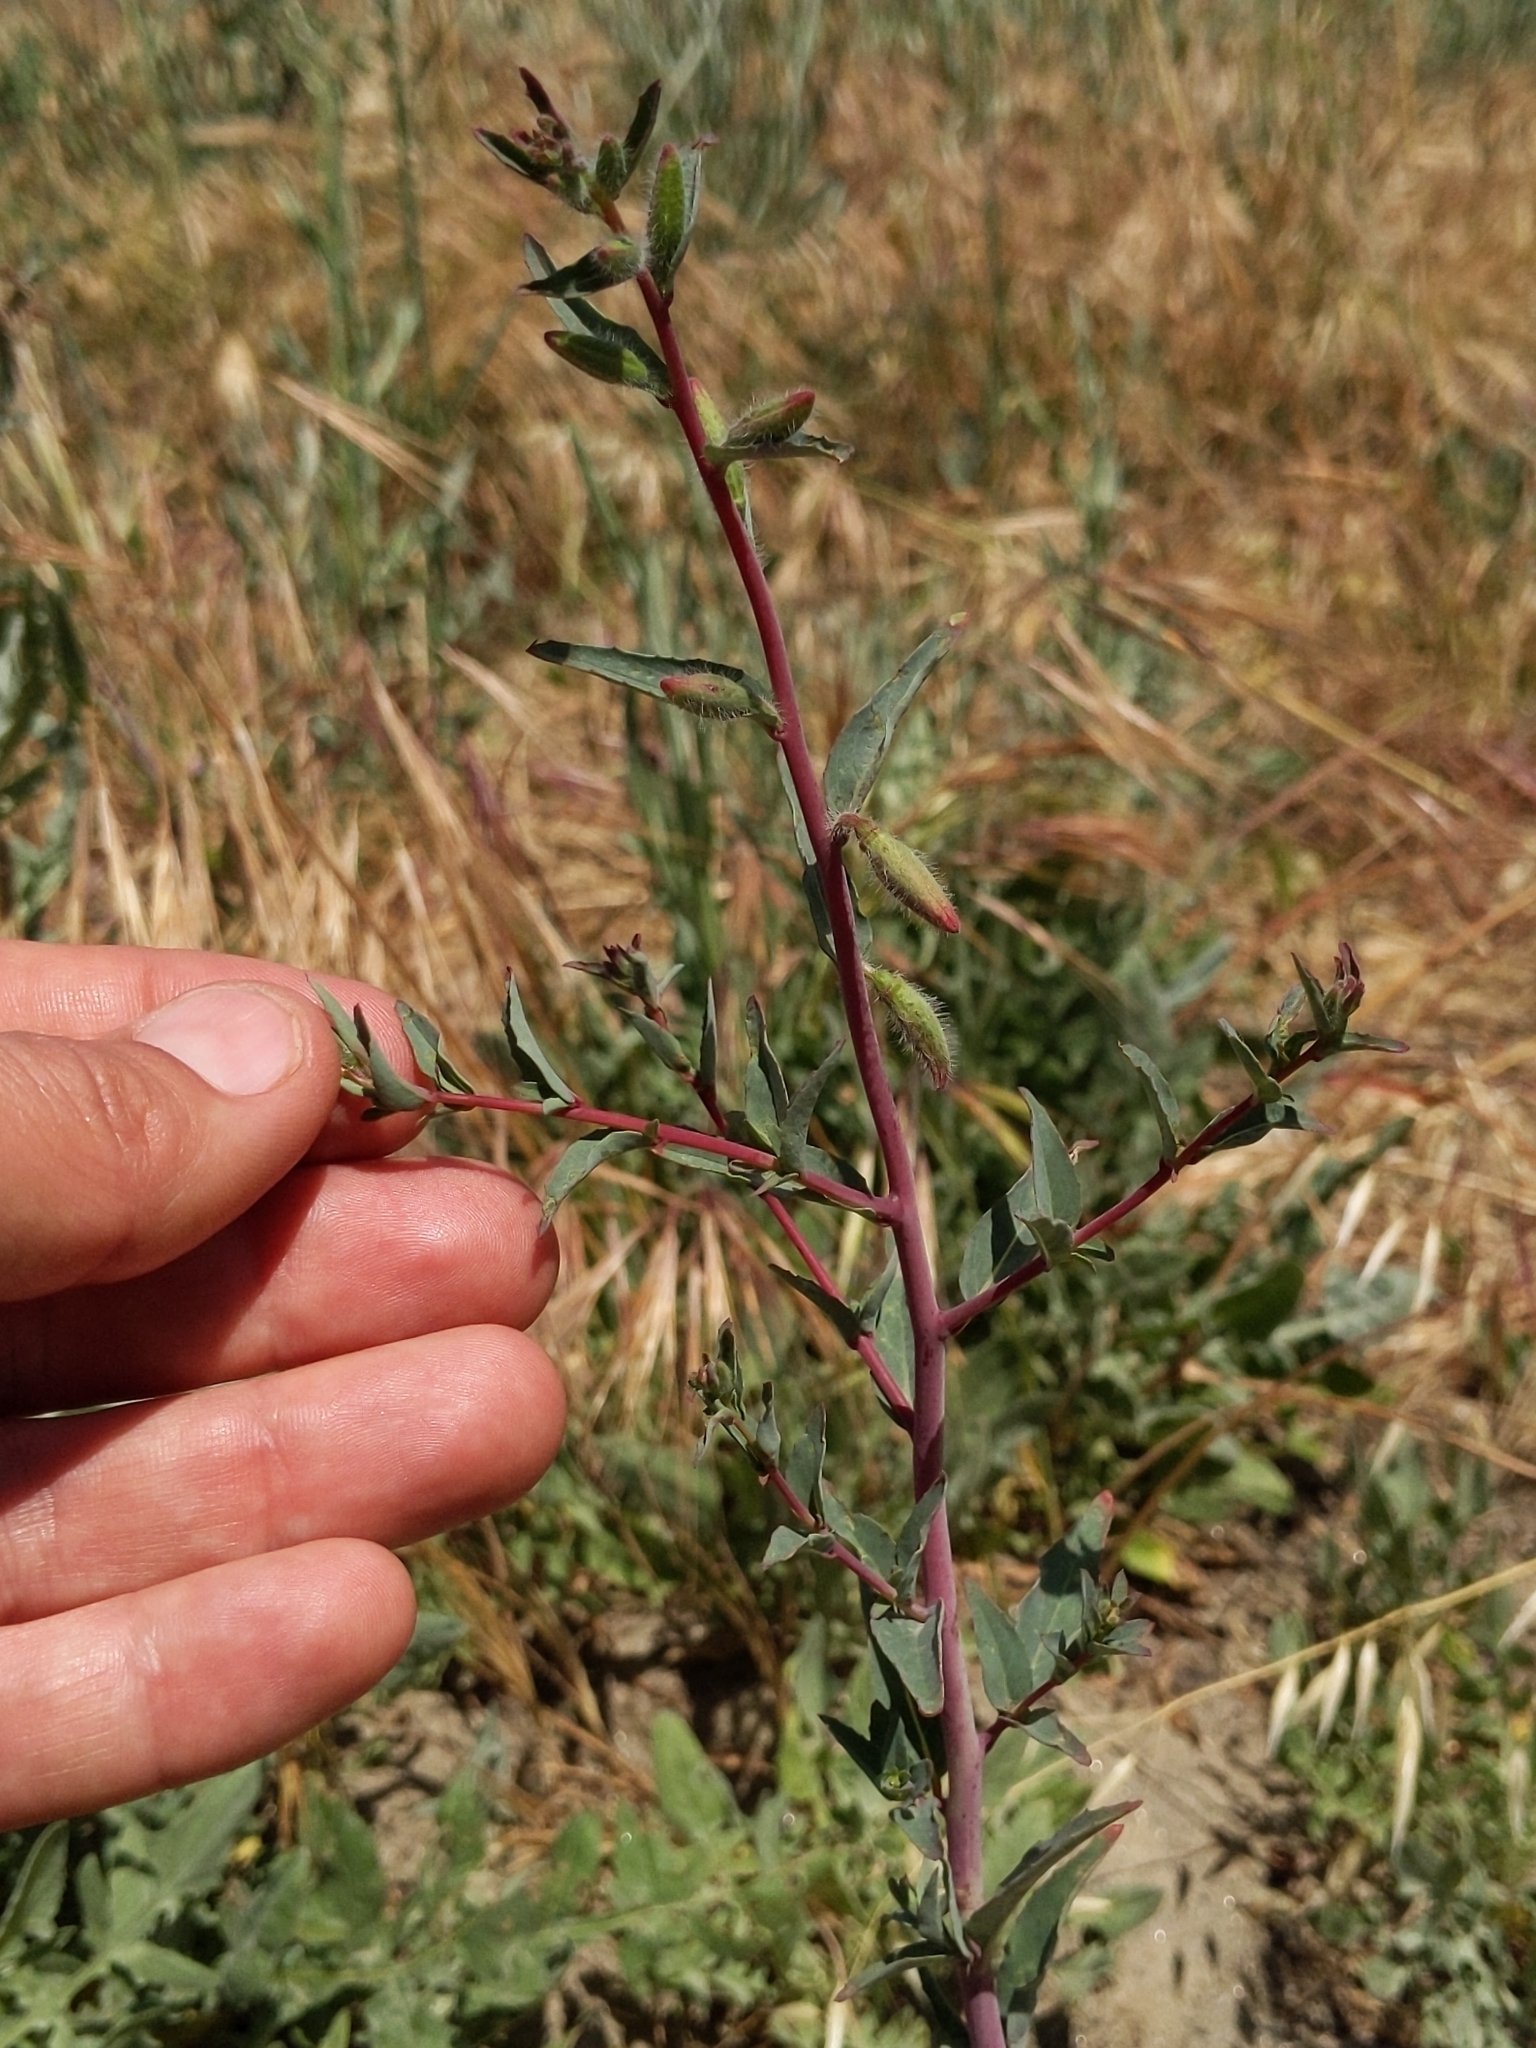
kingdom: Plantae
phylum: Tracheophyta
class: Magnoliopsida
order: Myrtales
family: Onagraceae
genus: Clarkia
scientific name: Clarkia unguiculata
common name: Clarkia
